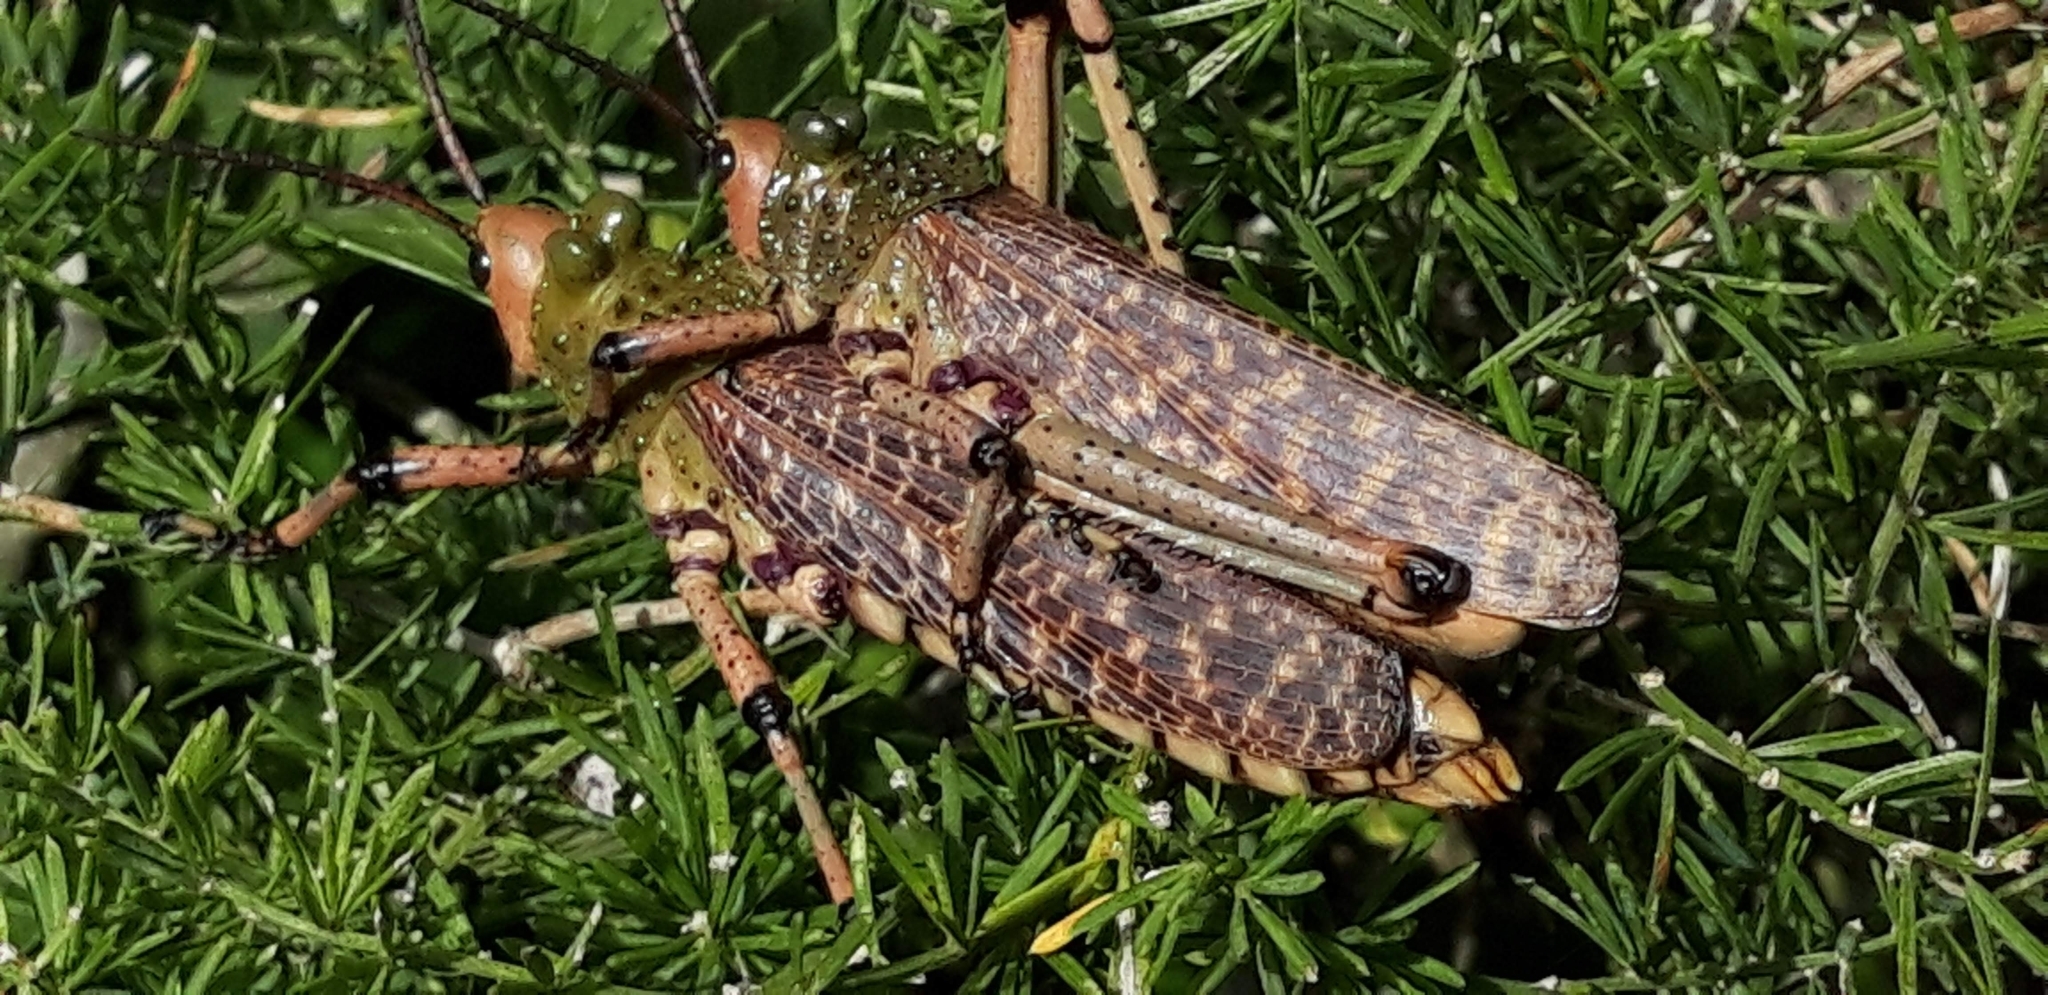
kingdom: Animalia
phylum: Arthropoda
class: Insecta
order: Orthoptera
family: Pyrgomorphidae
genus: Phymateus
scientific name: Phymateus leprosus
